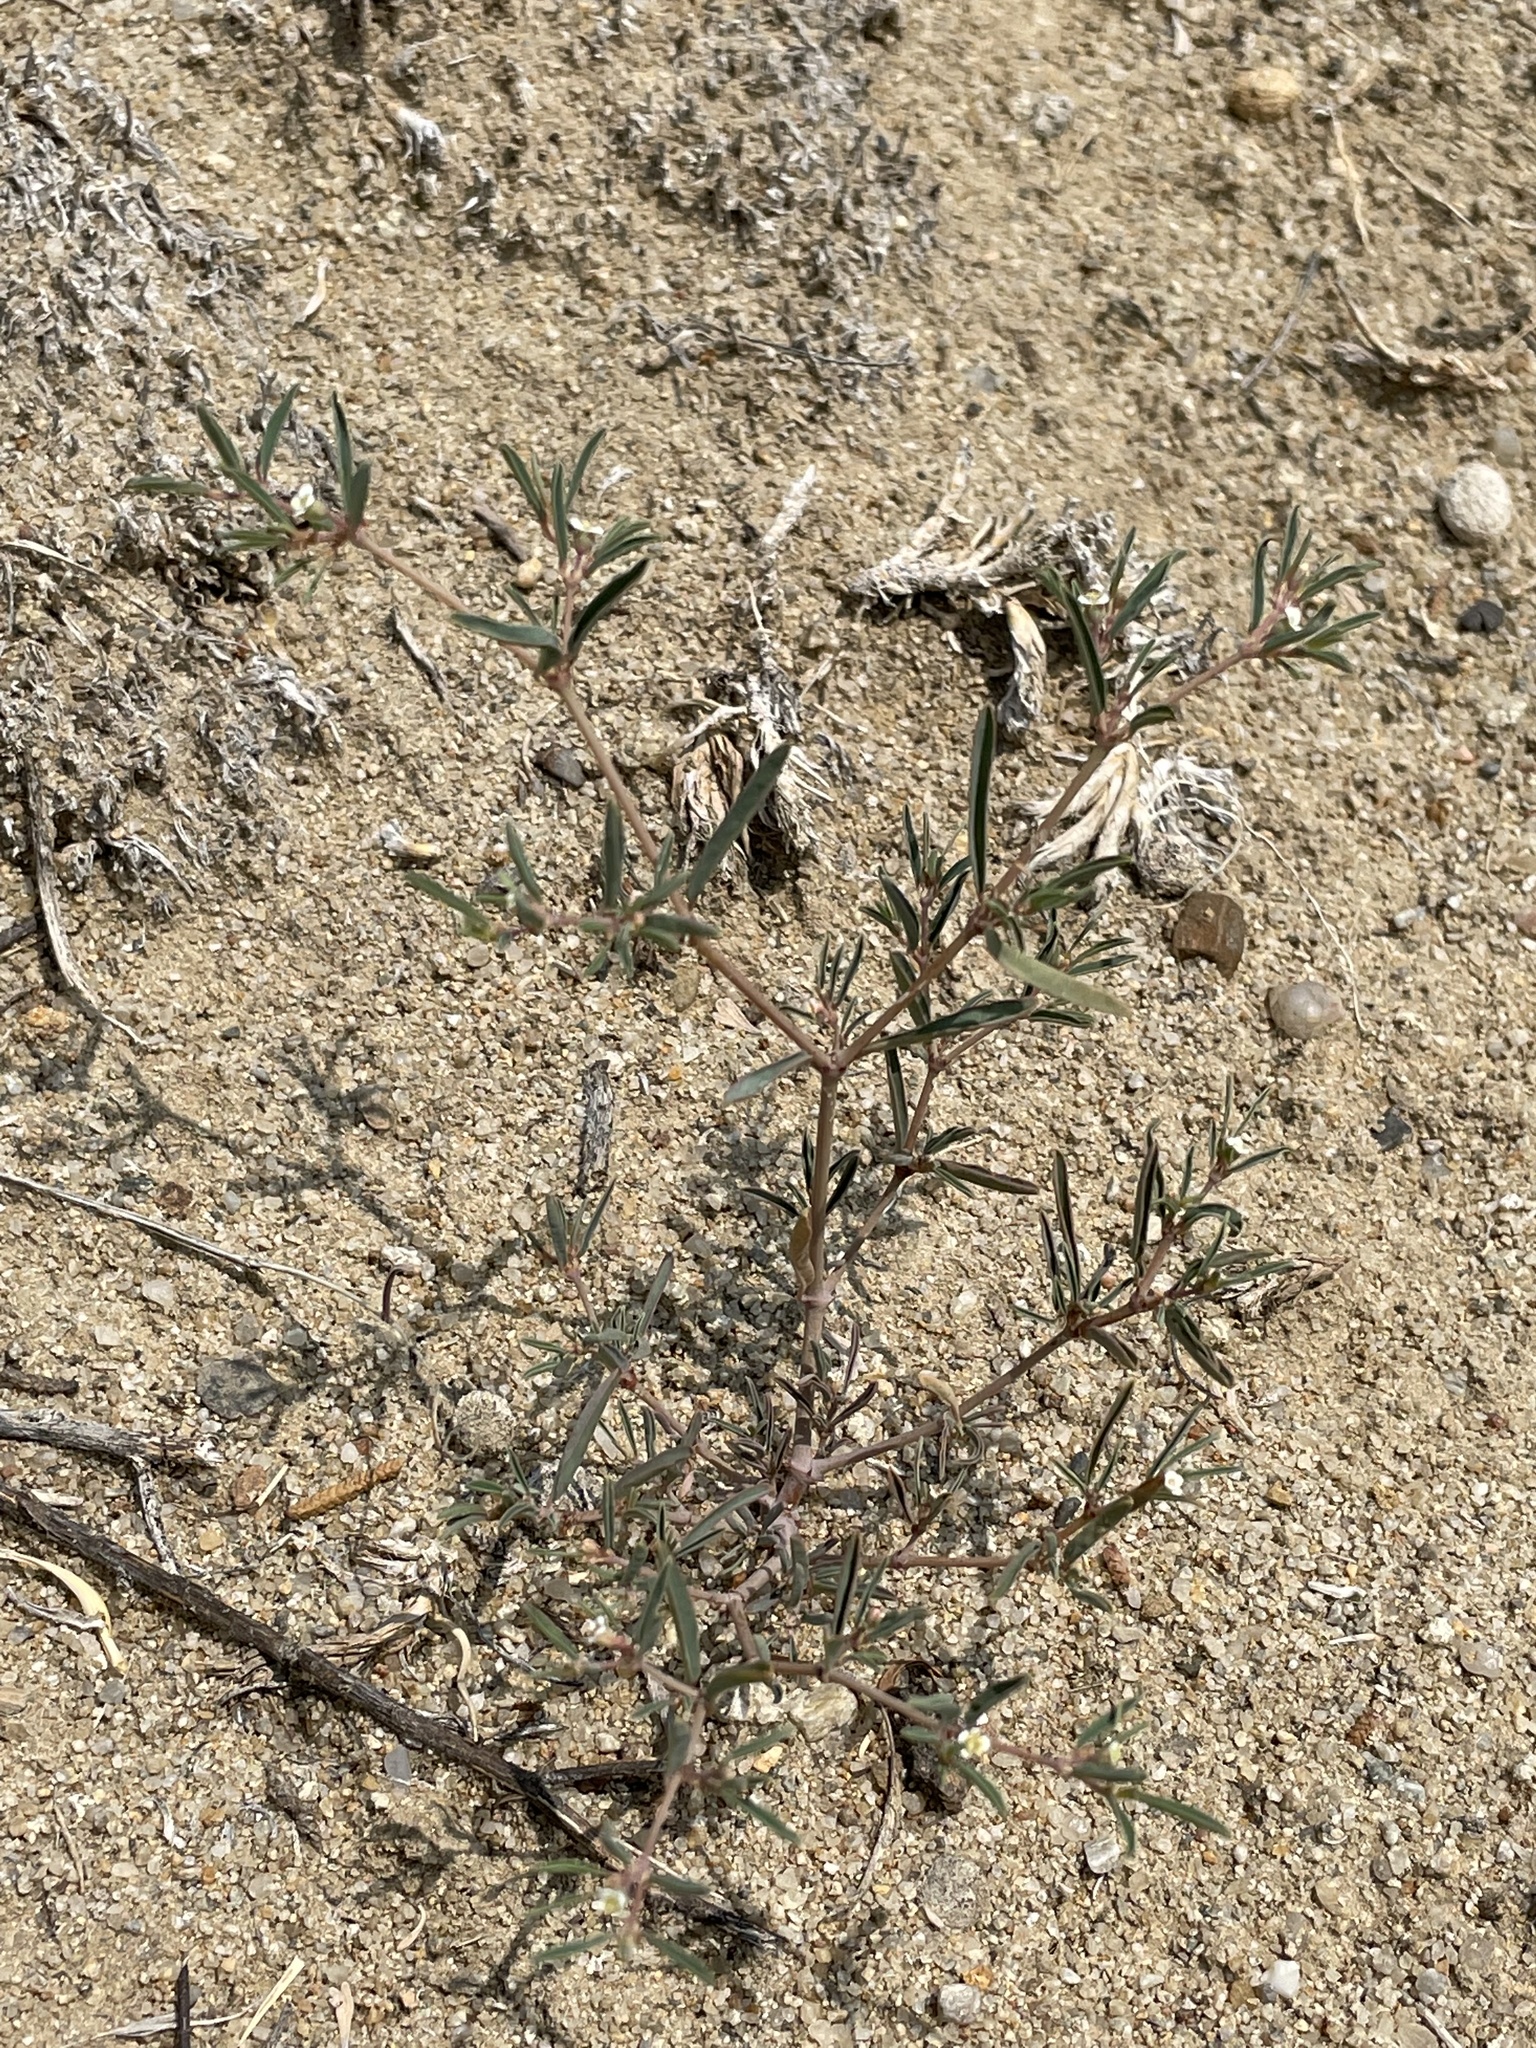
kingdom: Plantae
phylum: Tracheophyta
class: Magnoliopsida
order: Malpighiales
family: Euphorbiaceae
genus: Euphorbia
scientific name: Euphorbia missurica
